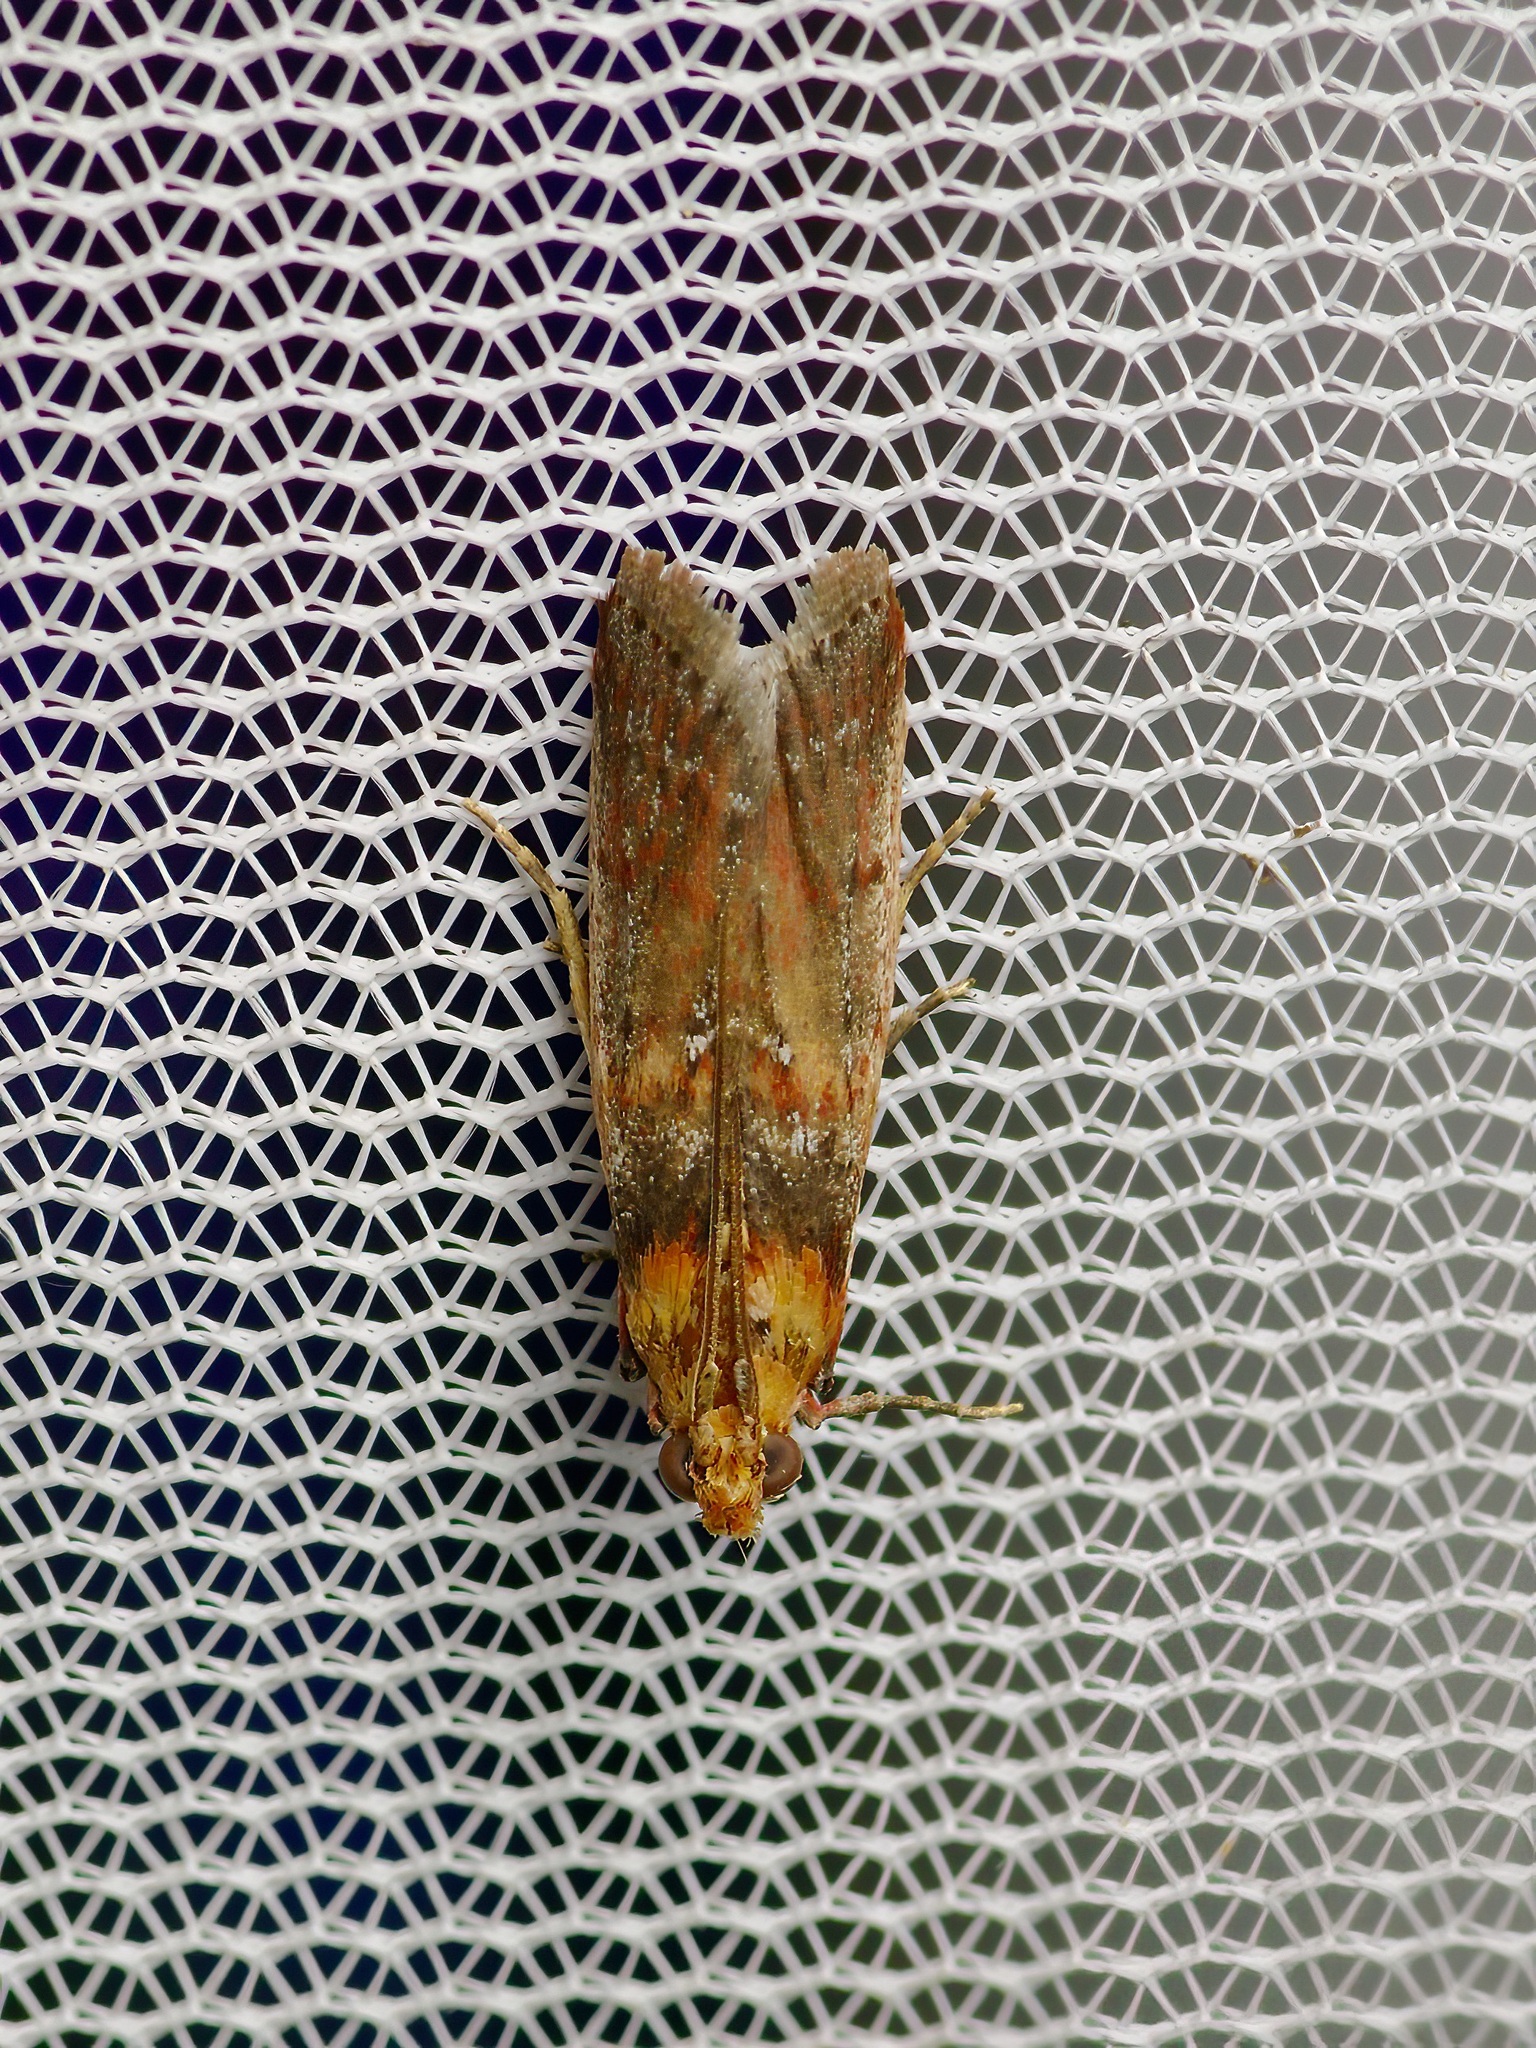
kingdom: Animalia
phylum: Arthropoda
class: Insecta
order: Lepidoptera
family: Pyralidae
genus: Adelphia
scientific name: Adelphia petrella
